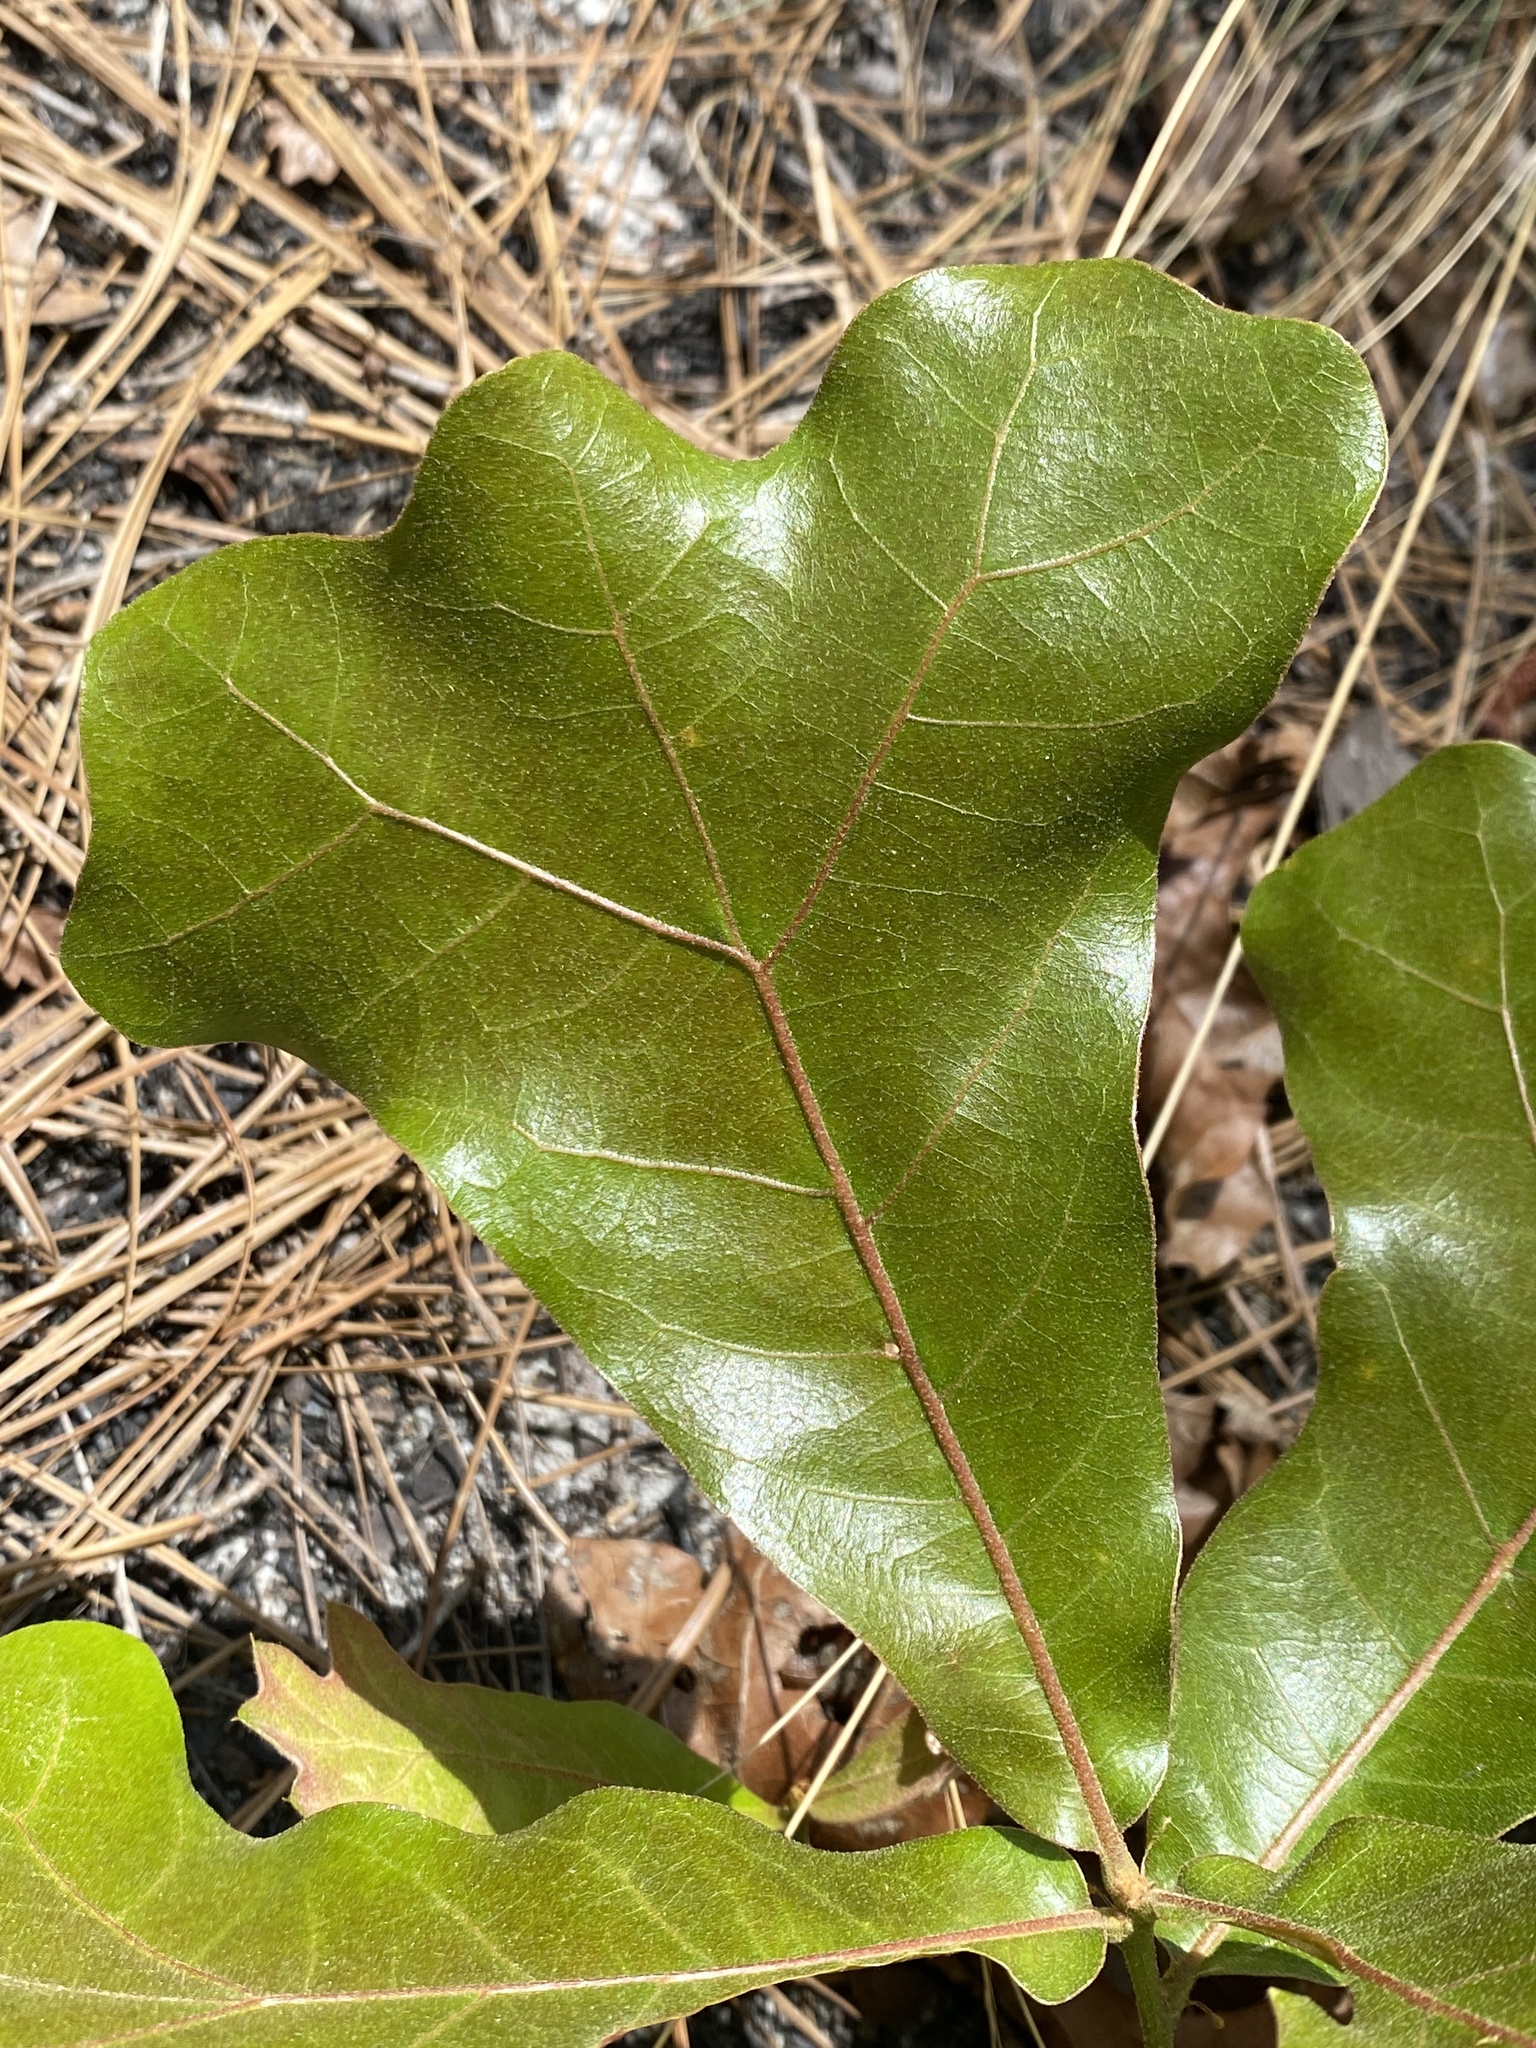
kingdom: Plantae
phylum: Tracheophyta
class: Magnoliopsida
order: Fagales
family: Fagaceae
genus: Quercus
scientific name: Quercus marilandica
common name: Blackjack oak
